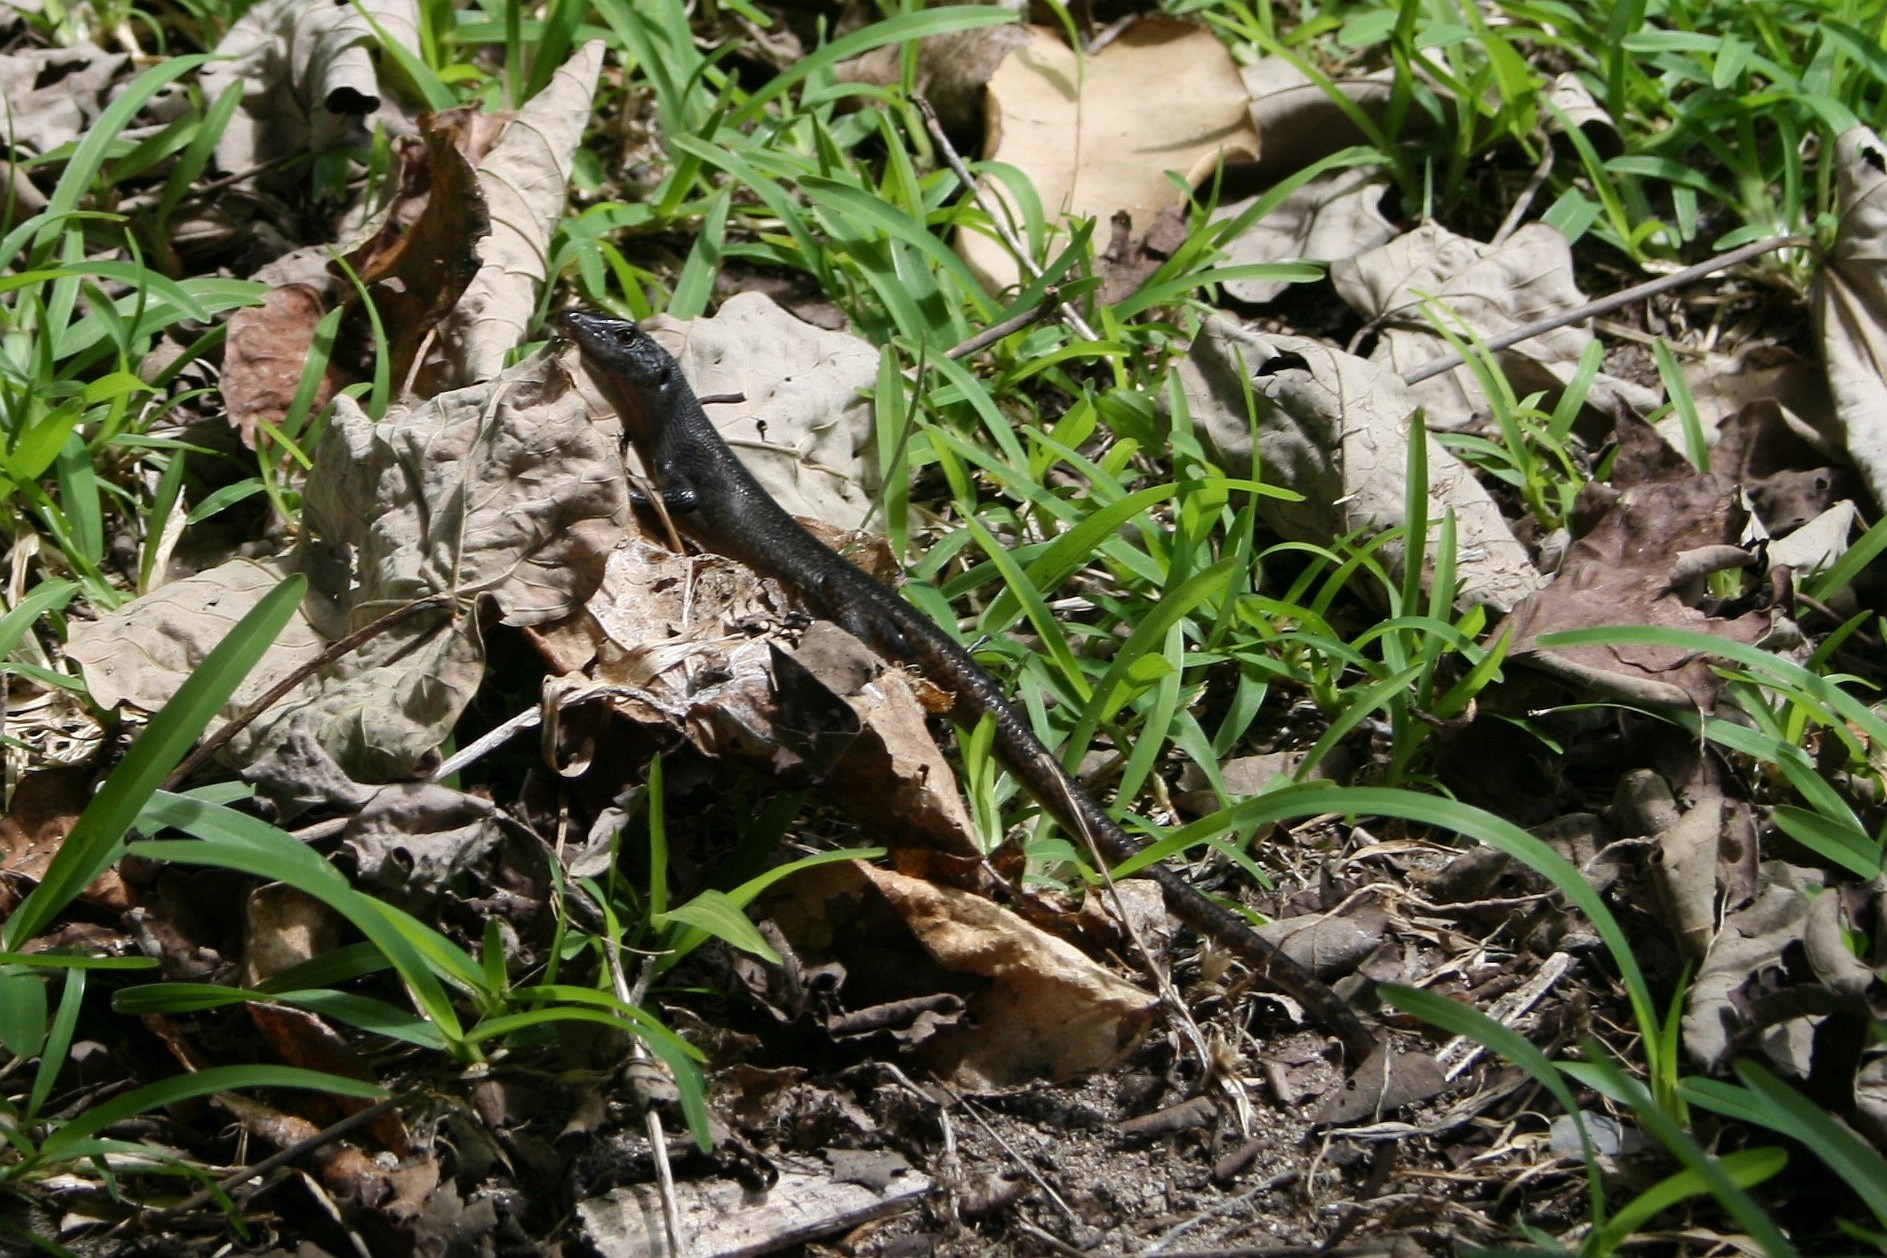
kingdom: Animalia
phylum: Chordata
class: Squamata
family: Scincidae
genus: Emoia
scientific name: Emoia nigra
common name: Black emo skink
